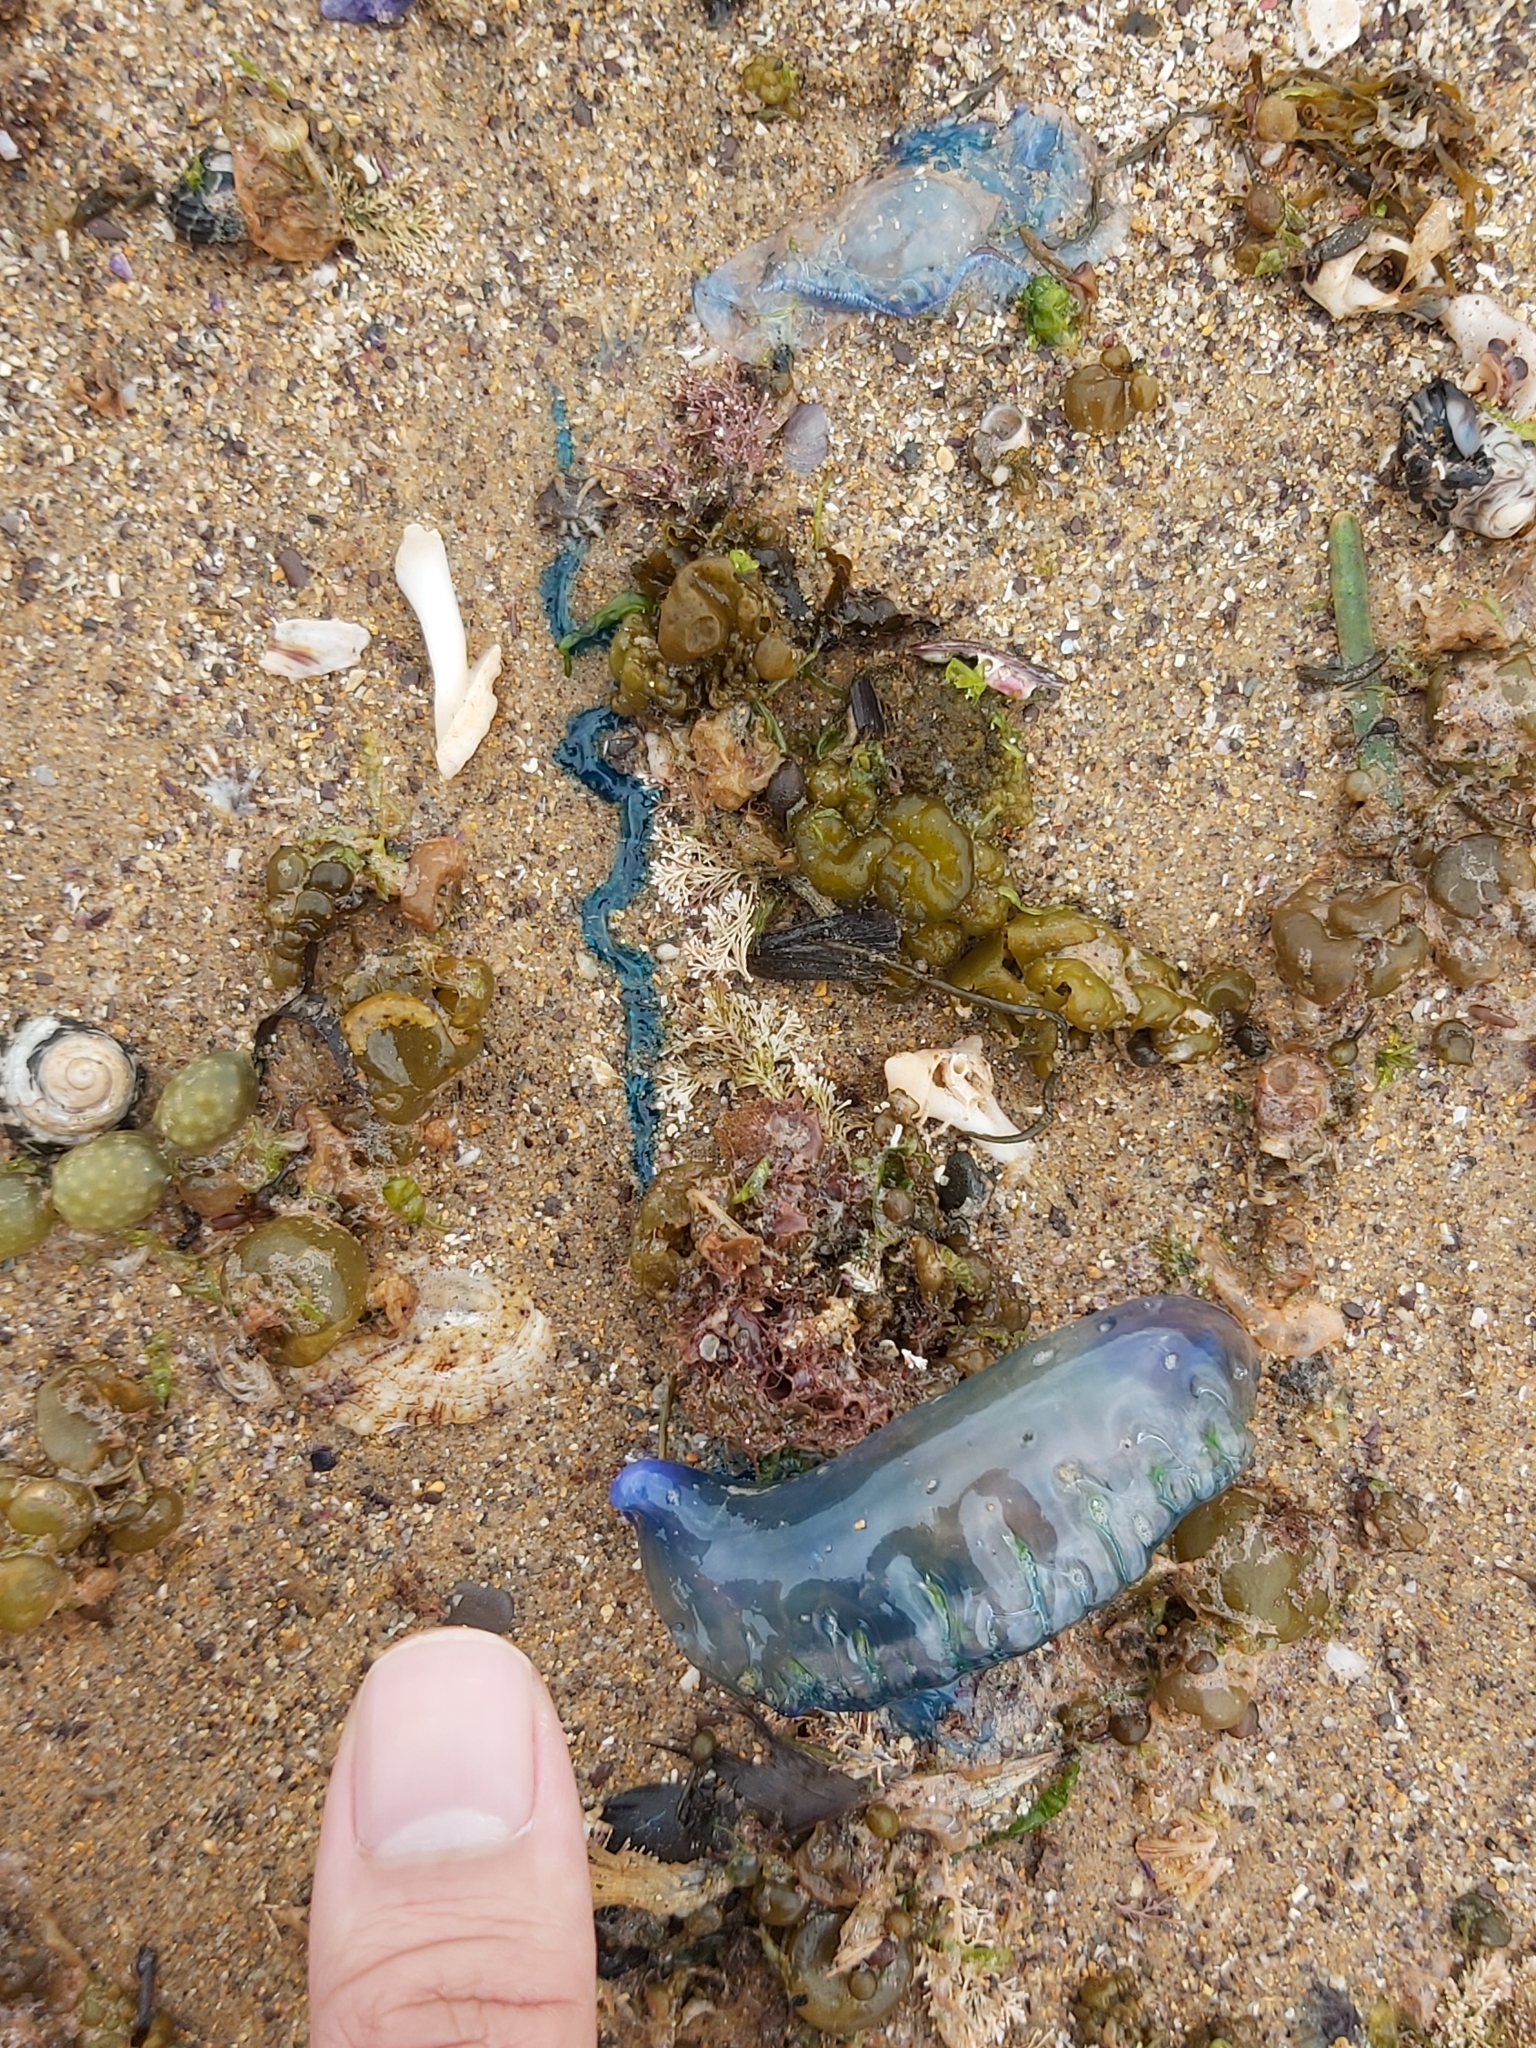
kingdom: Animalia
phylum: Cnidaria
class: Hydrozoa
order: Siphonophorae
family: Physaliidae
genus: Physalia
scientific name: Physalia physalis
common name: Portuguese man-of-war
